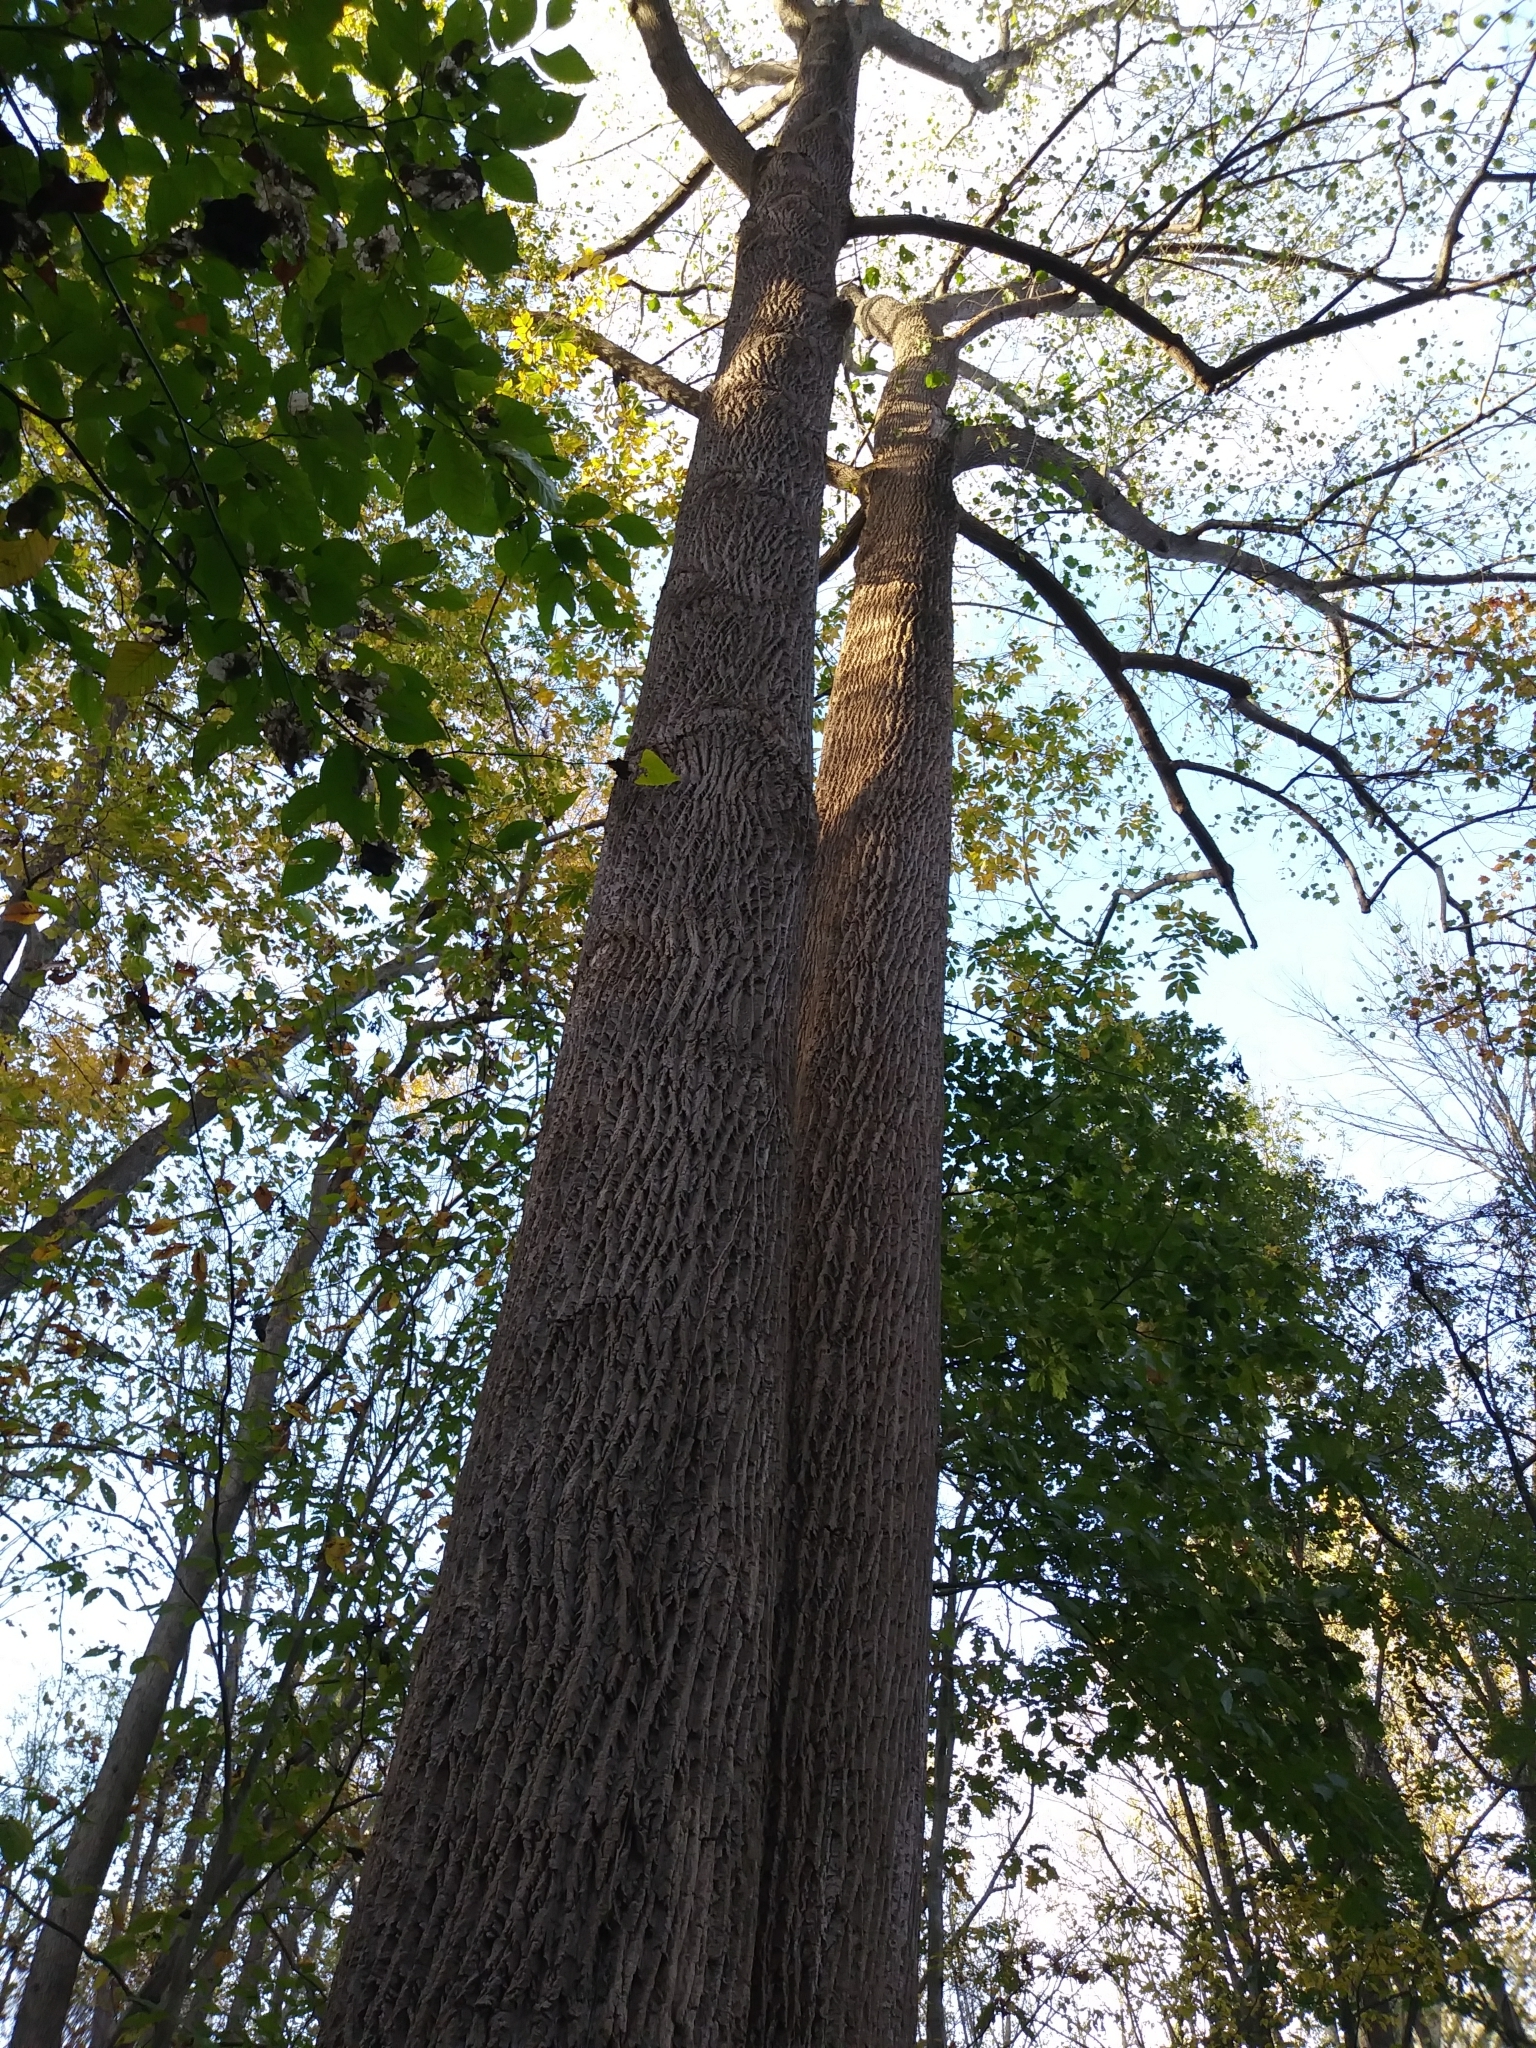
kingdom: Plantae
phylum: Tracheophyta
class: Magnoliopsida
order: Magnoliales
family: Magnoliaceae
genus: Liriodendron
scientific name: Liriodendron tulipifera
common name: Tulip tree
